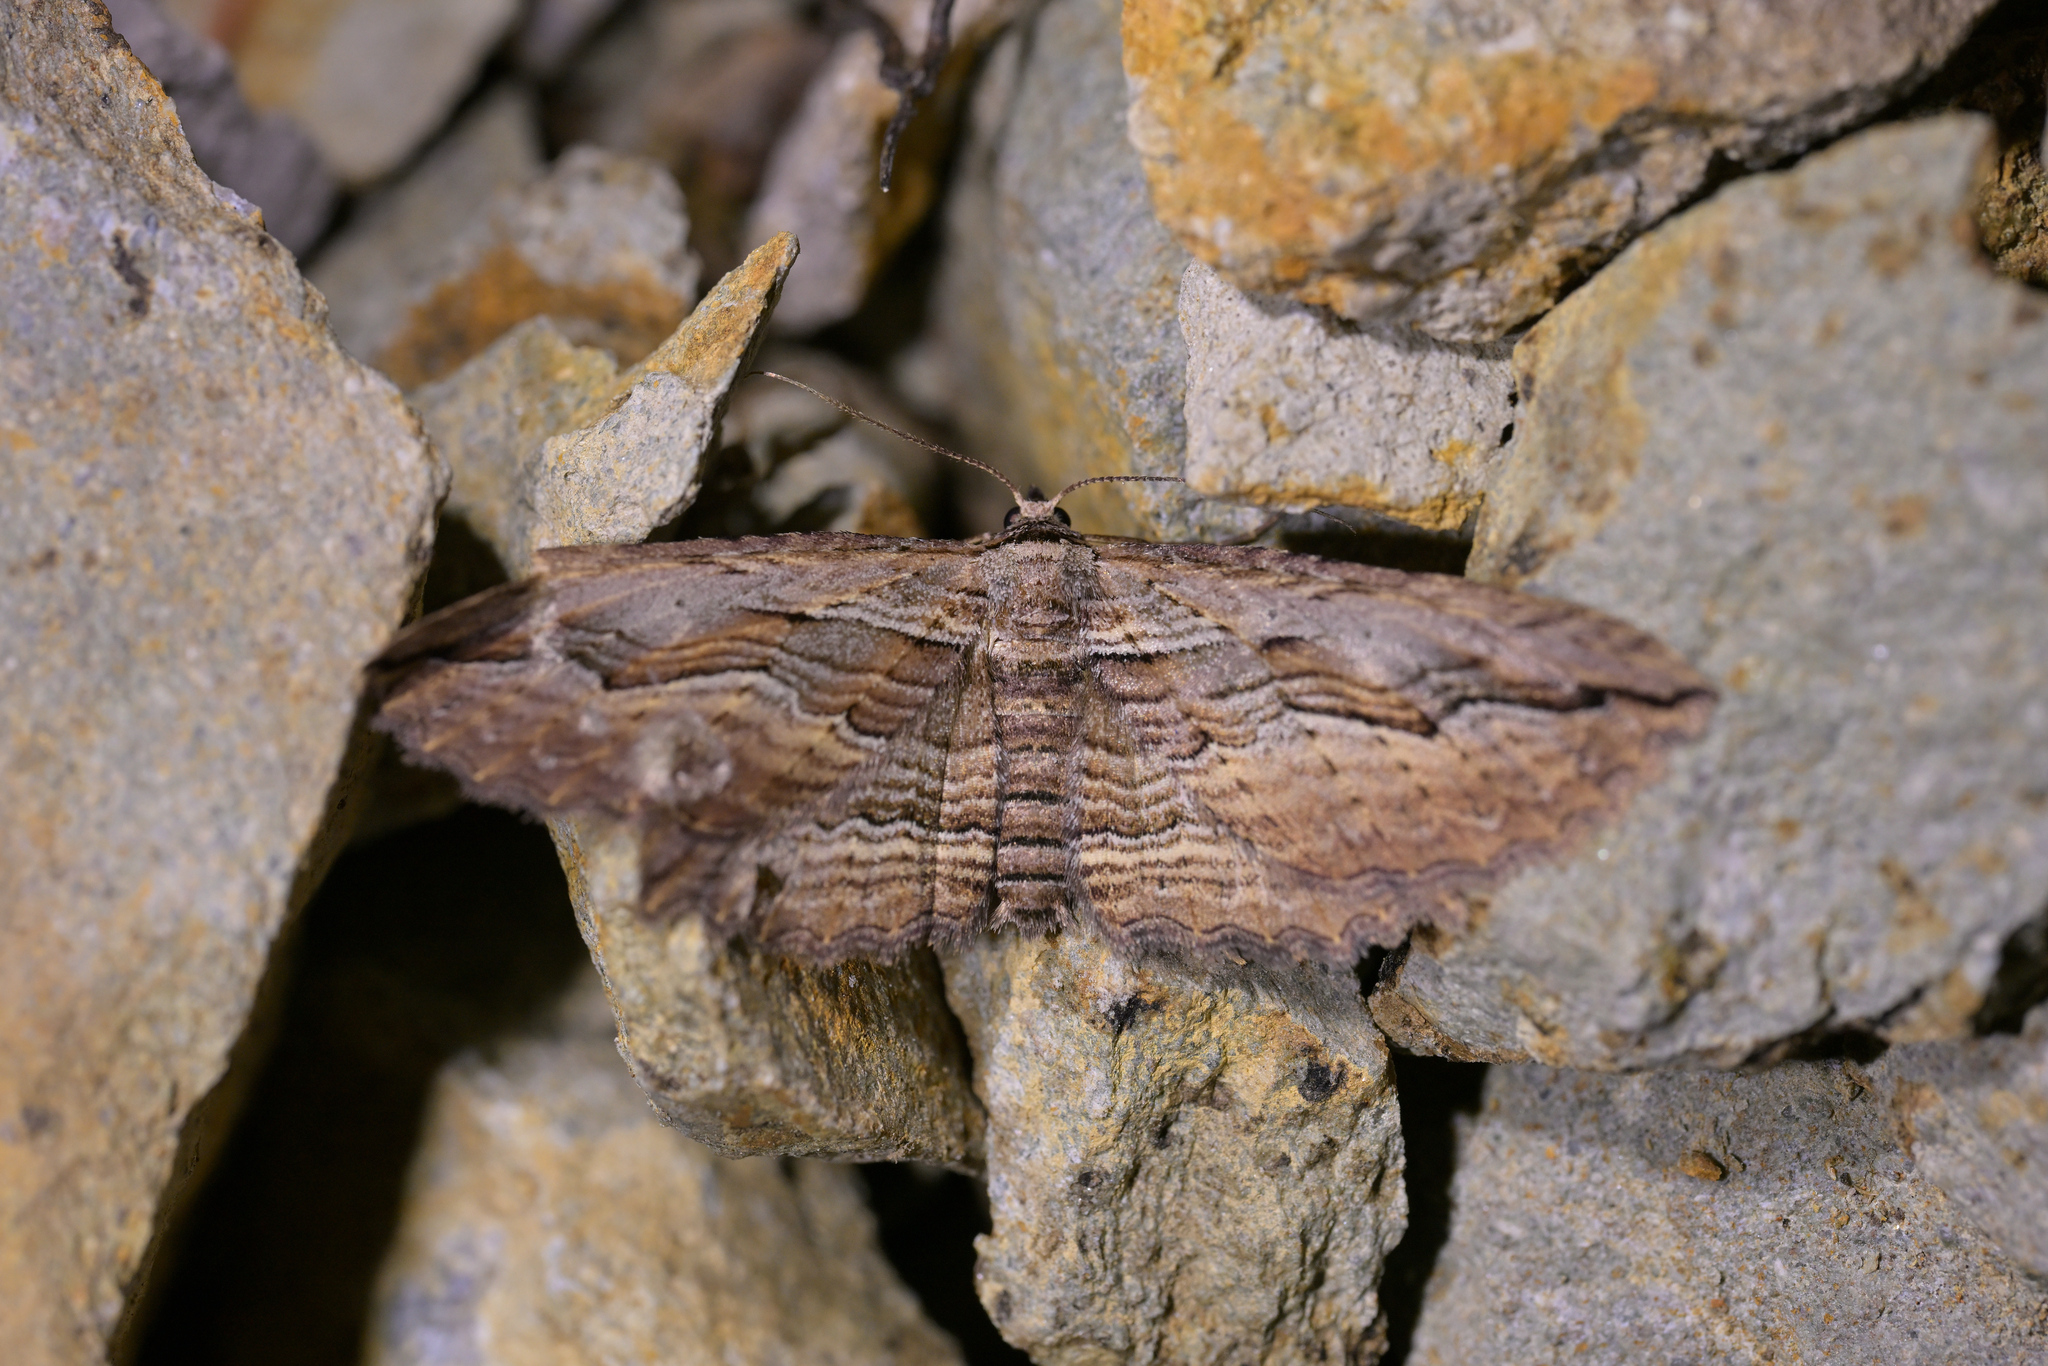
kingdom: Animalia
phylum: Arthropoda
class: Insecta
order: Lepidoptera
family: Geometridae
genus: Austrocidaria
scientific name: Austrocidaria gobiata
